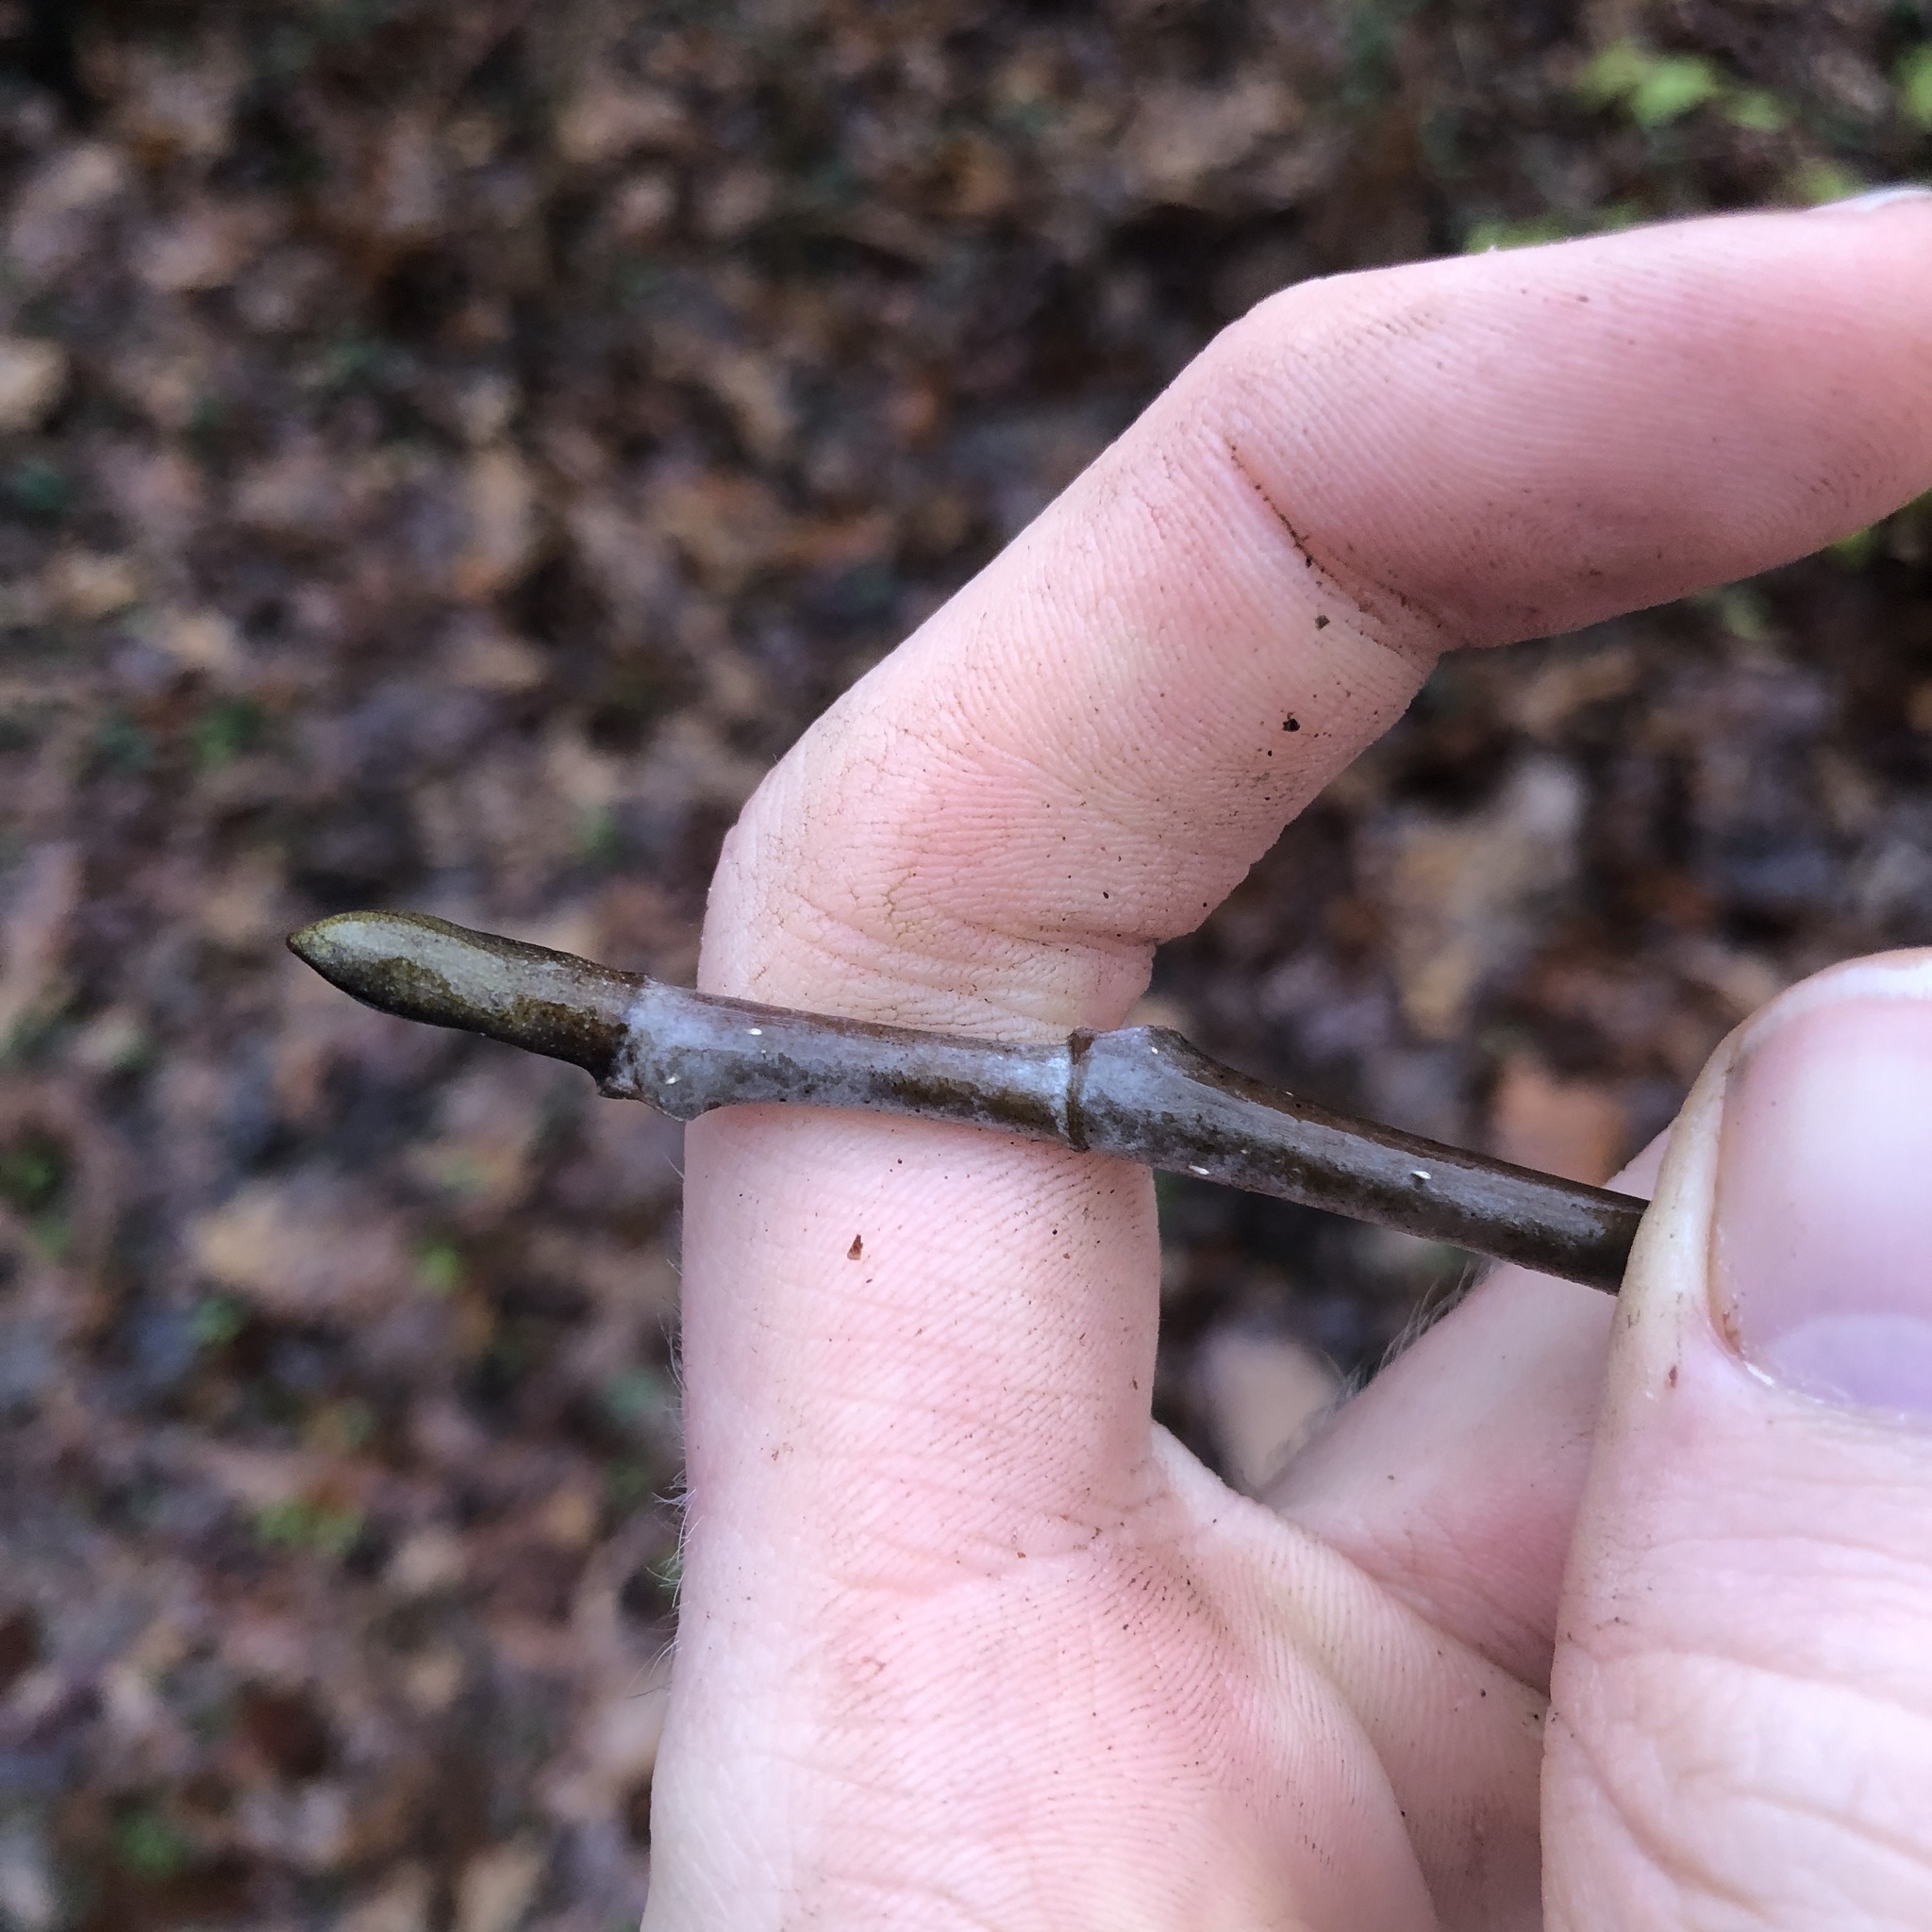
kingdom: Plantae
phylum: Tracheophyta
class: Magnoliopsida
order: Magnoliales
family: Magnoliaceae
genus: Liriodendron
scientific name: Liriodendron tulipifera
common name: Tulip tree
